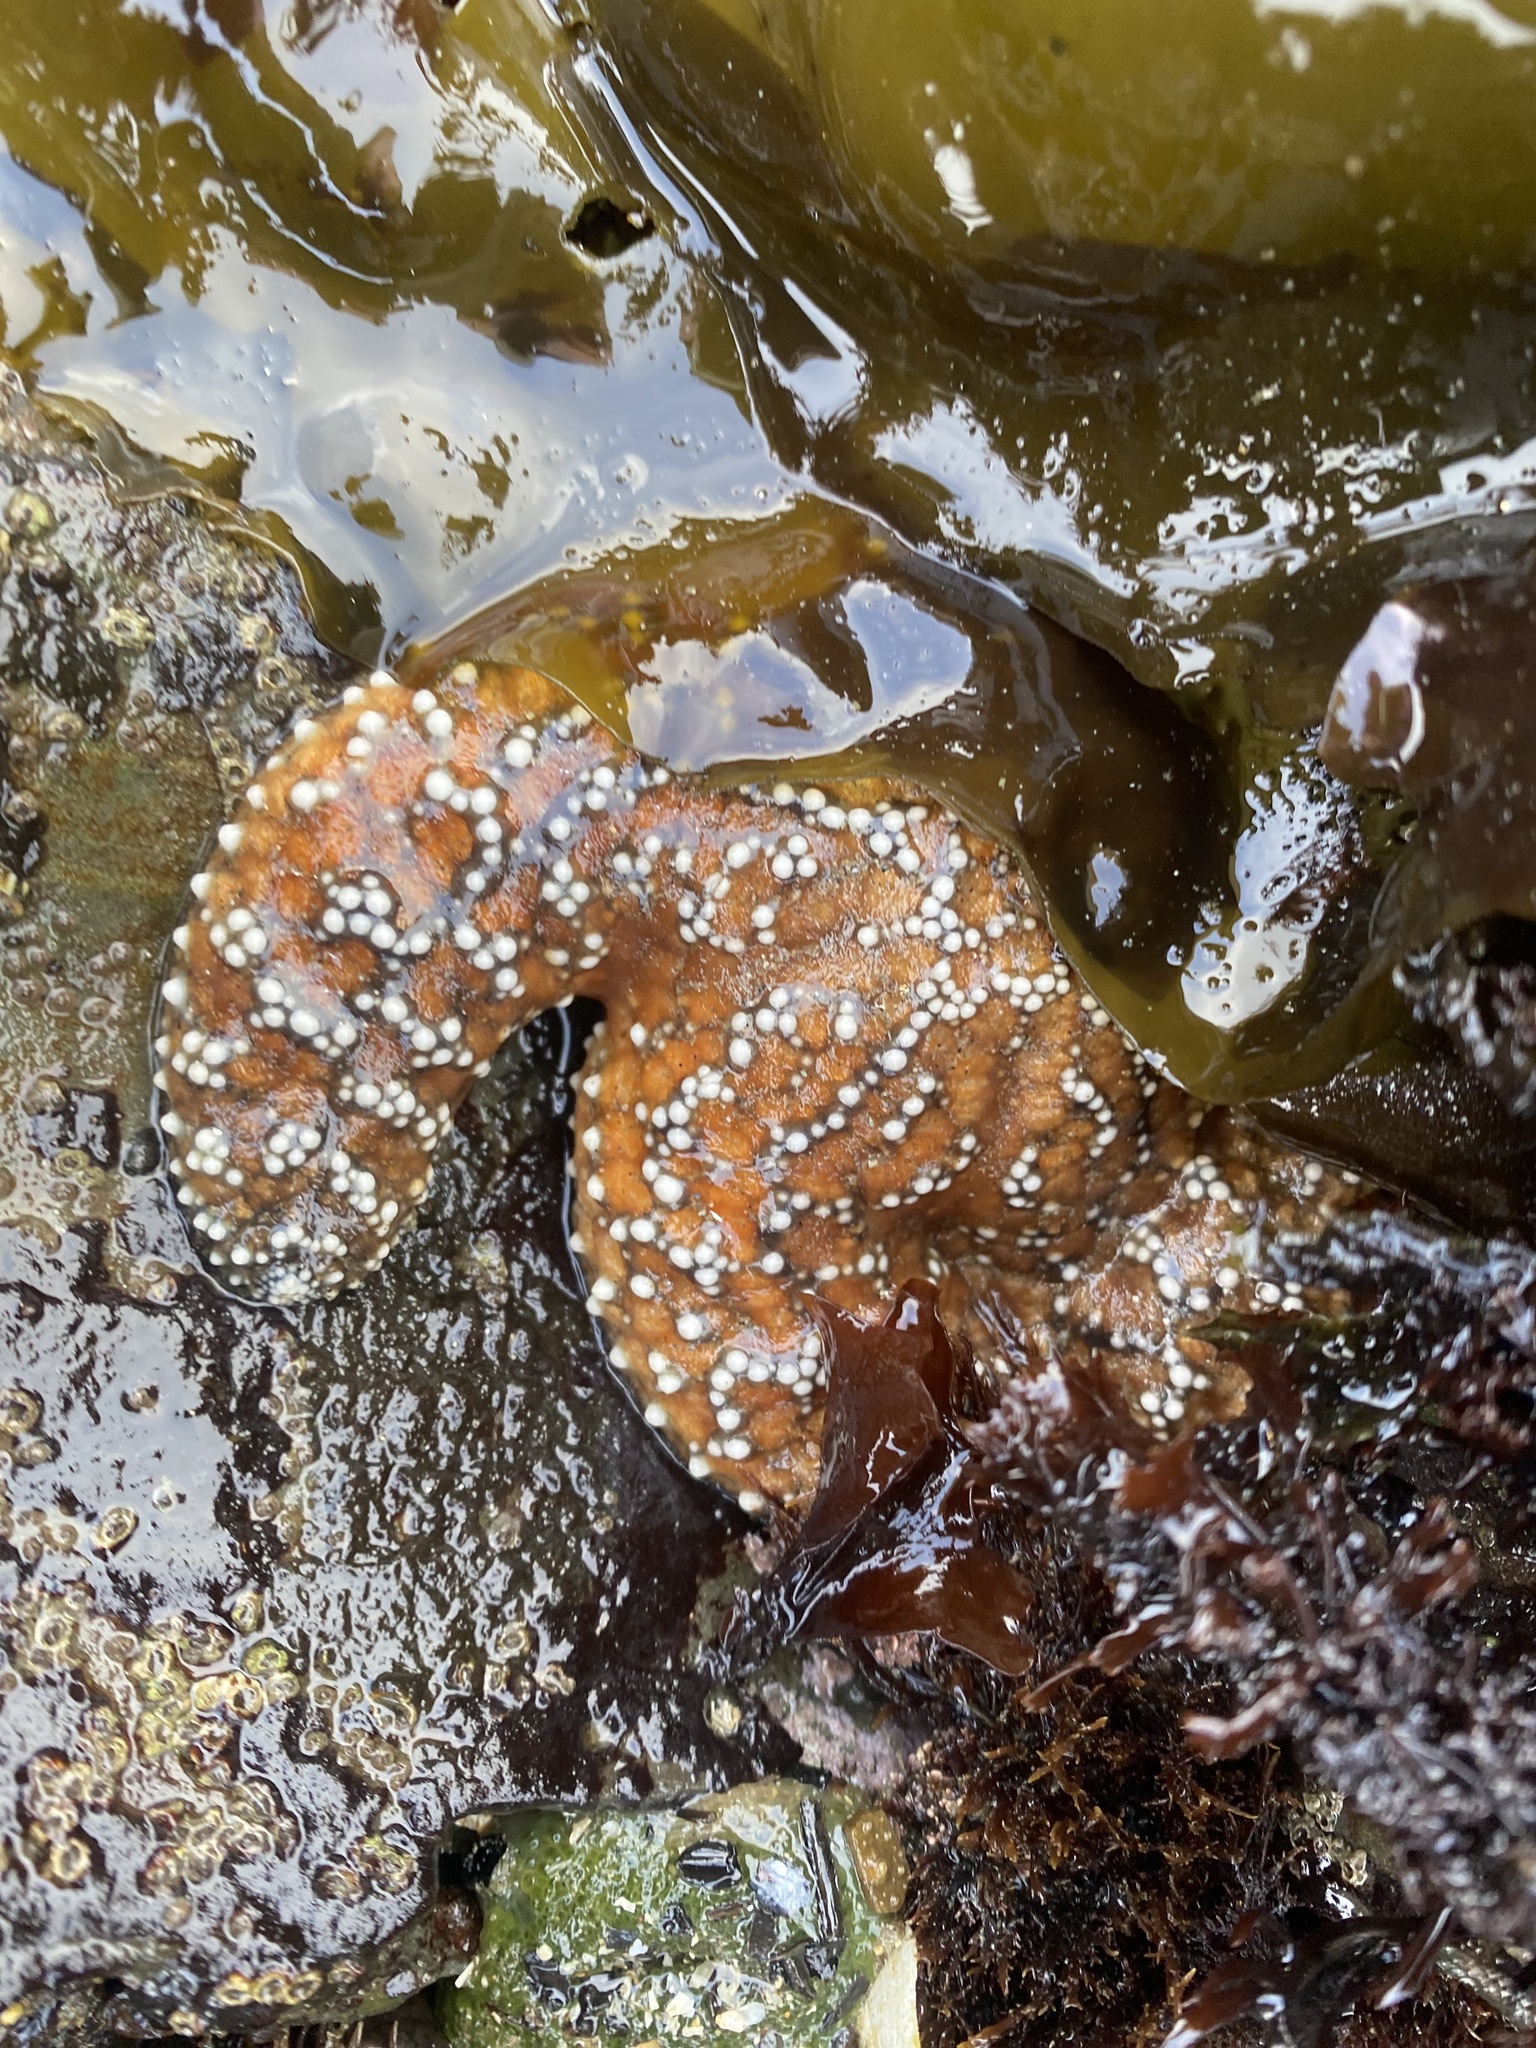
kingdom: Animalia
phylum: Echinodermata
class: Asteroidea
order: Forcipulatida
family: Asteriidae
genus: Pisaster
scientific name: Pisaster ochraceus
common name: Ochre stars
